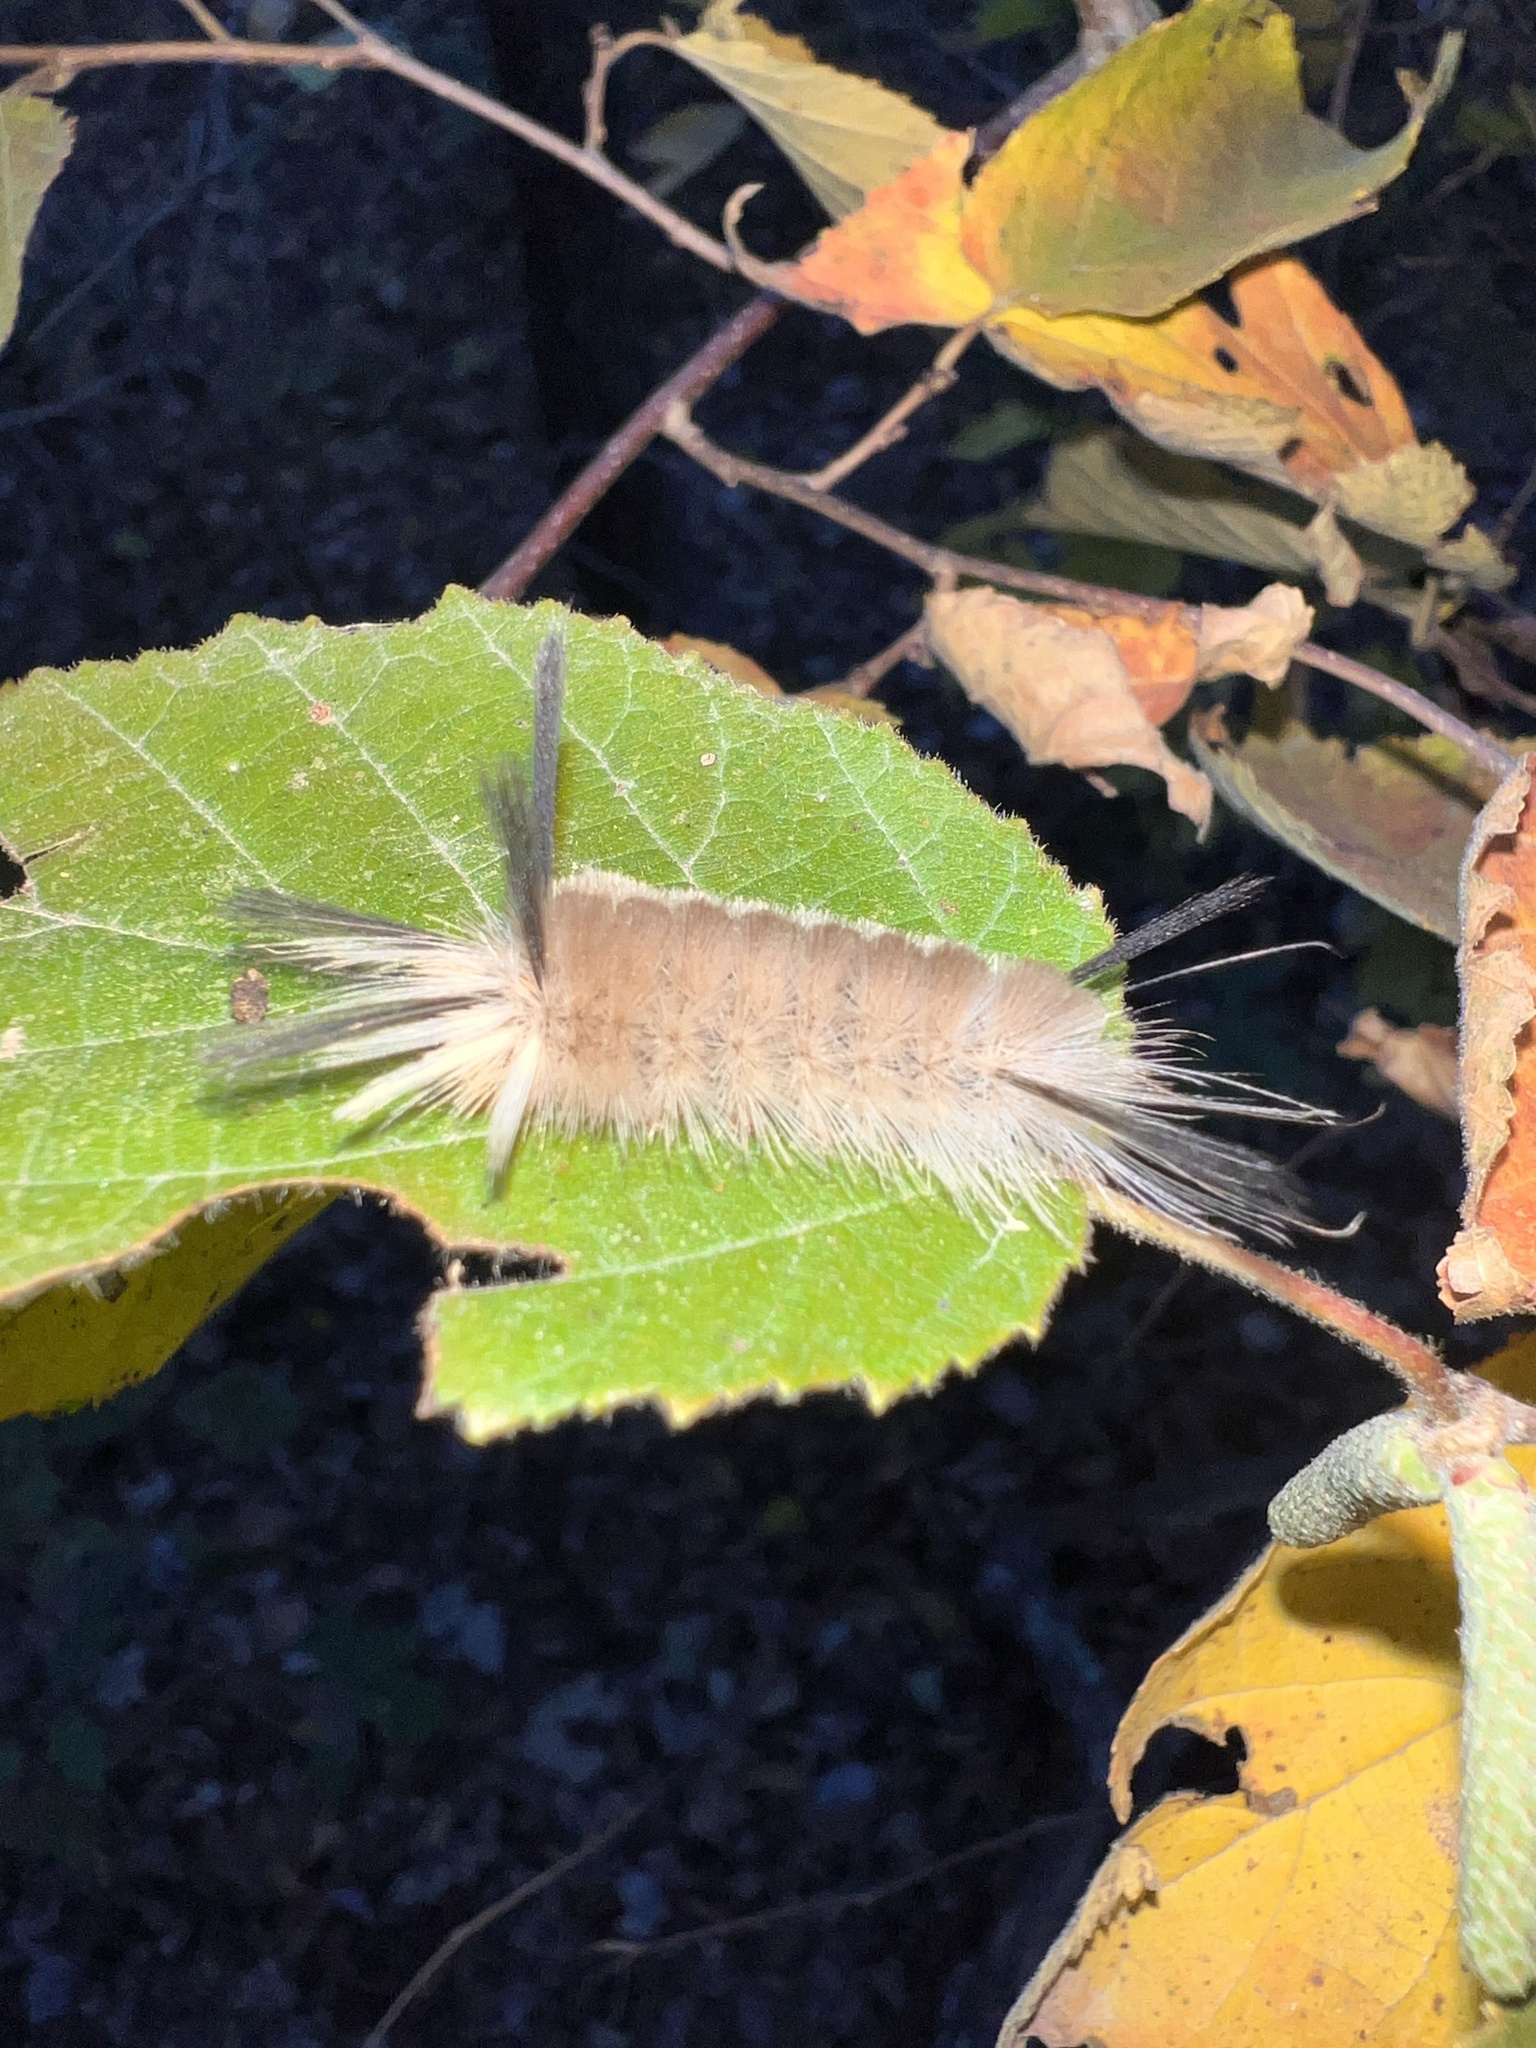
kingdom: Animalia
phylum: Arthropoda
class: Insecta
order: Lepidoptera
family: Erebidae
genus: Halysidota
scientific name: Halysidota tessellaris
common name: Banded tussock moth
